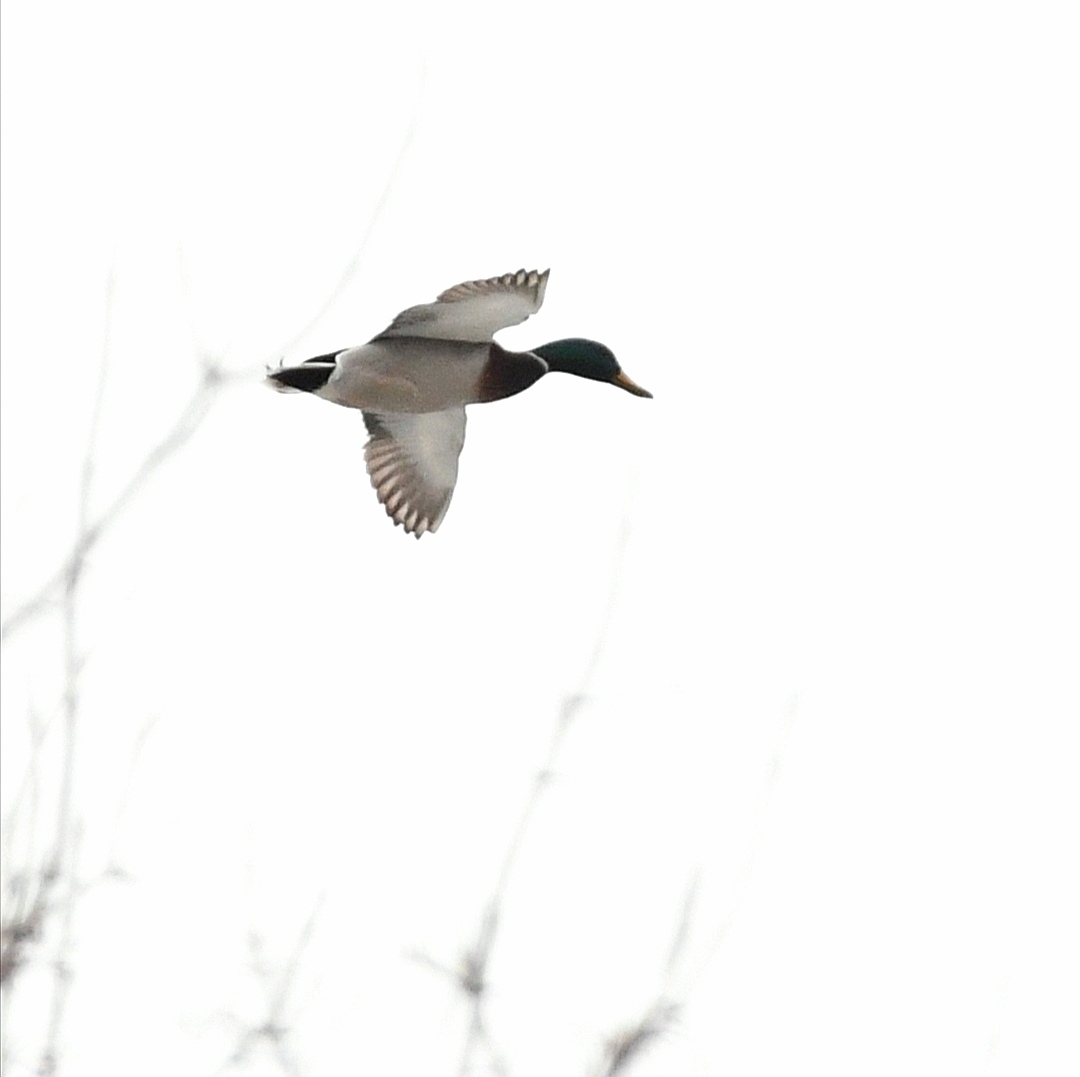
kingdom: Animalia
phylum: Chordata
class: Aves
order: Anseriformes
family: Anatidae
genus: Anas
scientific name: Anas platyrhynchos
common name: Mallard
